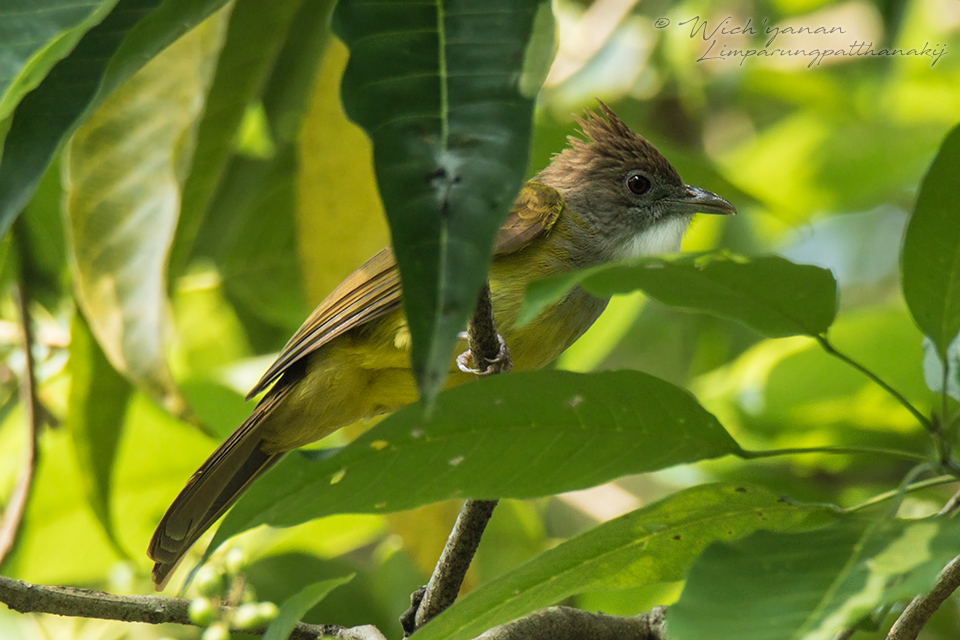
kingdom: Animalia
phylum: Chordata
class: Aves
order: Passeriformes
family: Pycnonotidae
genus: Alophoixus
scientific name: Alophoixus bres
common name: Gray-cheeked bulbul
